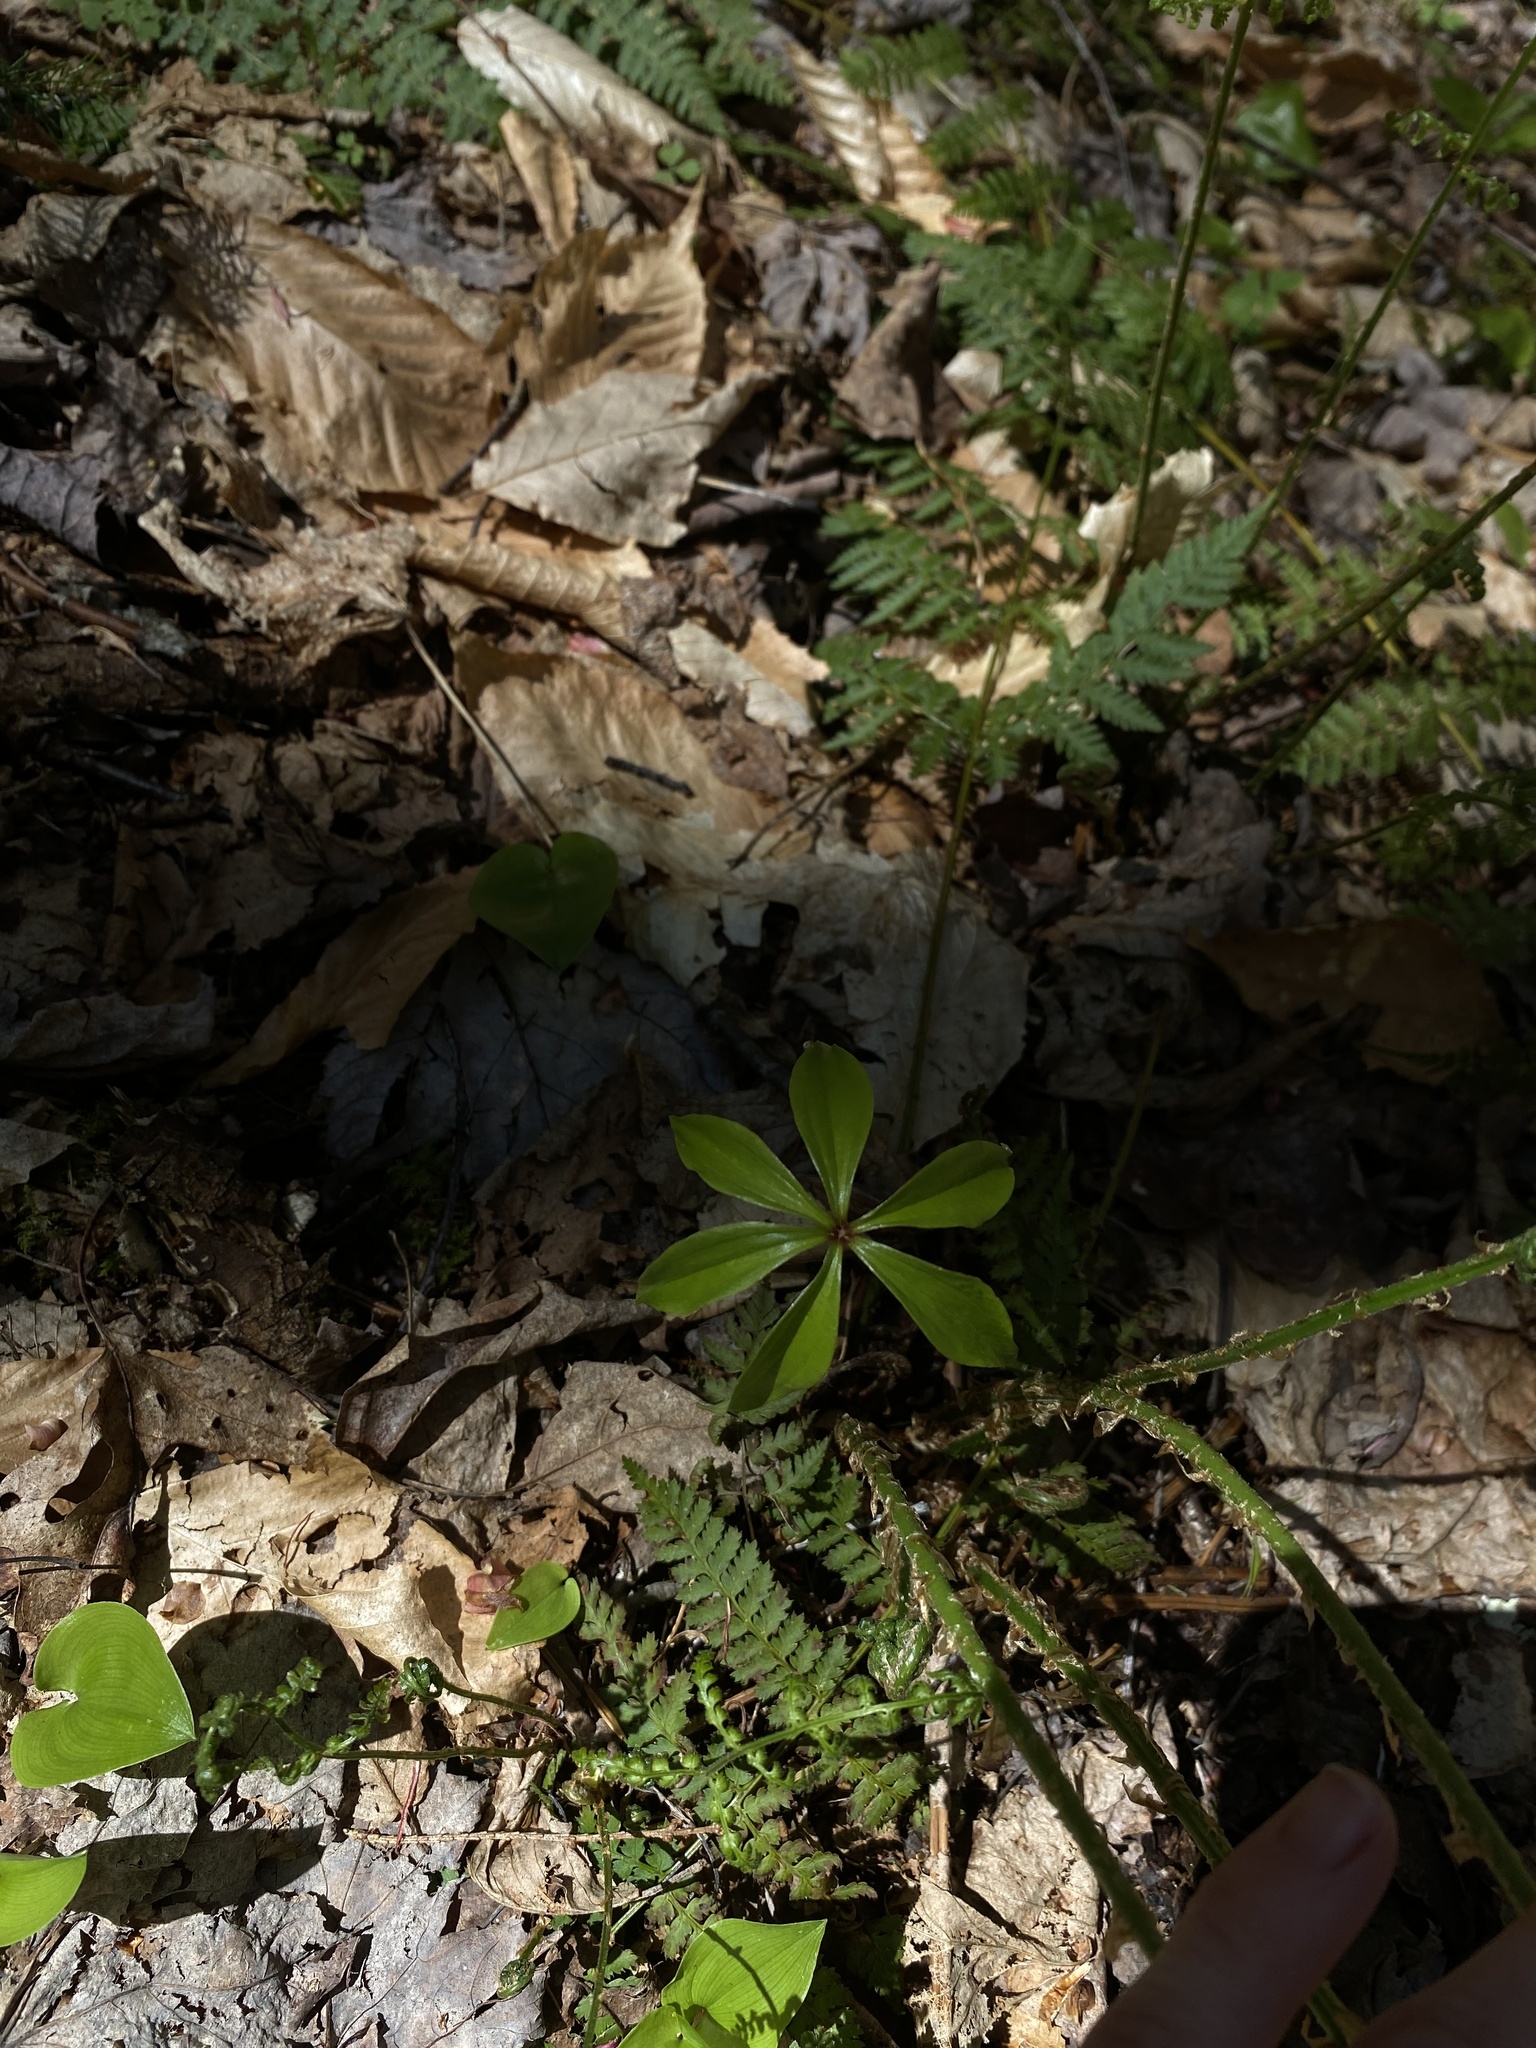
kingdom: Plantae
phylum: Tracheophyta
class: Liliopsida
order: Liliales
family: Liliaceae
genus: Medeola
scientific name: Medeola virginiana
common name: Indian cucumber-root
